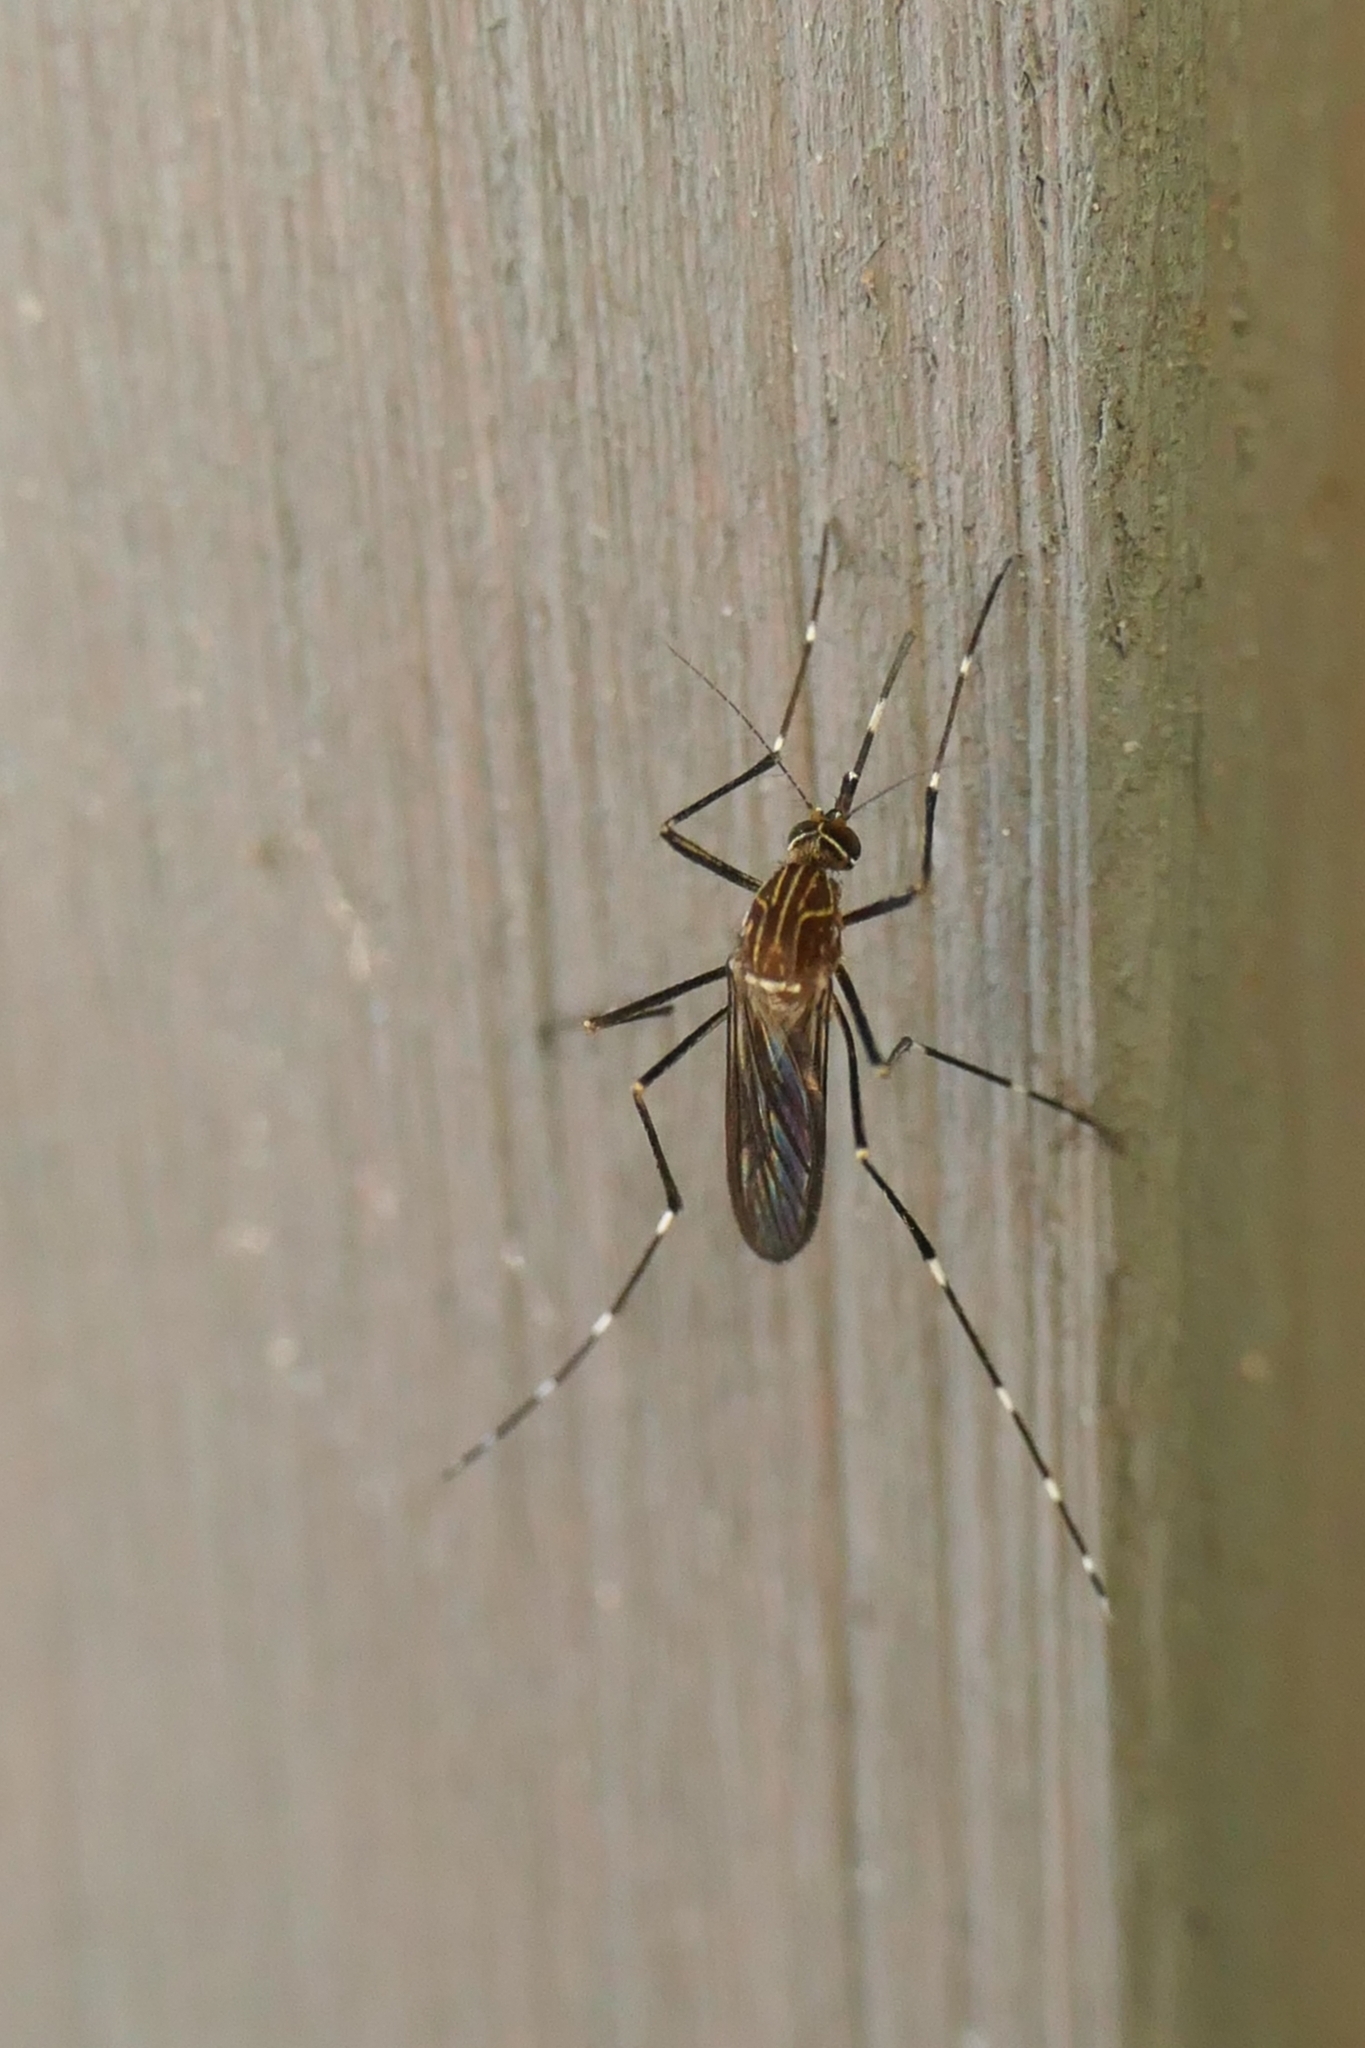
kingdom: Animalia
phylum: Arthropoda
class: Insecta
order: Diptera
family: Culicidae
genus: Aedes
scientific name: Aedes notoscriptus
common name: Australian backyard mosquito
